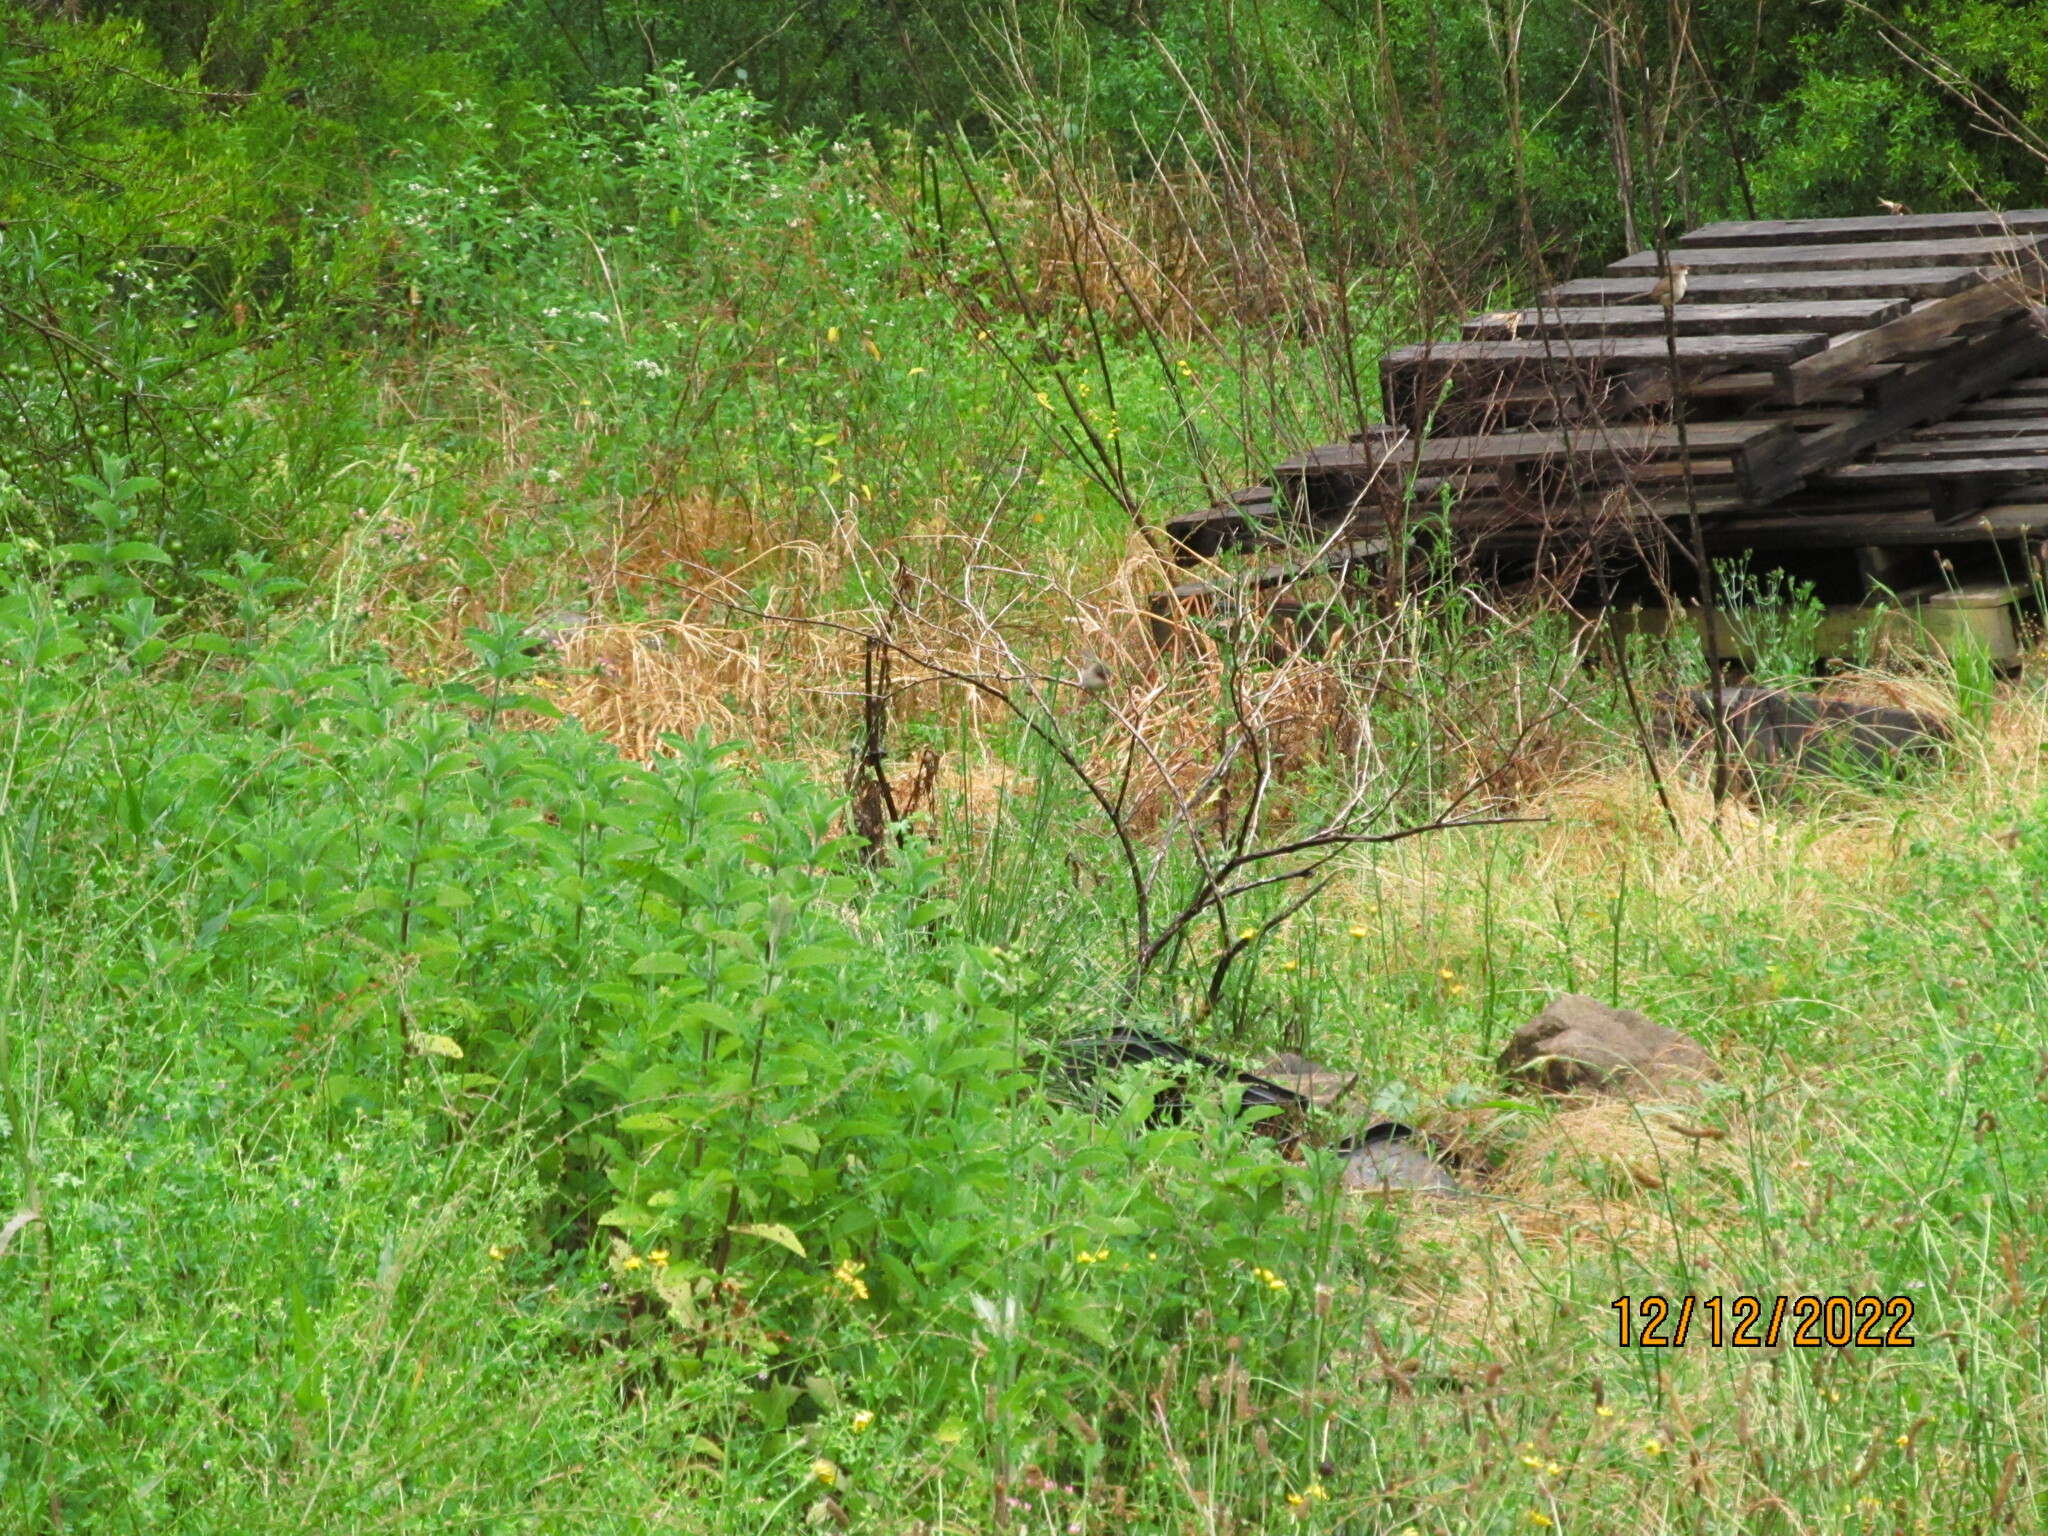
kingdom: Animalia
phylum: Chordata
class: Aves
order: Passeriformes
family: Maluridae
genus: Malurus
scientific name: Malurus cyaneus
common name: Superb fairywren
